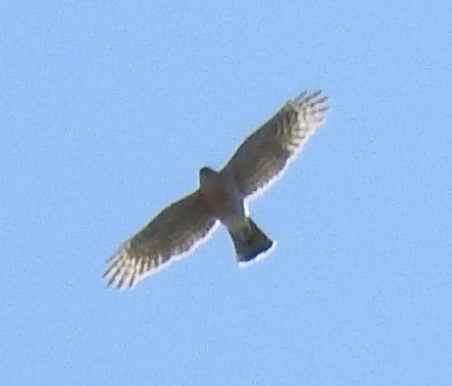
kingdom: Animalia
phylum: Chordata
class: Aves
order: Accipitriformes
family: Accipitridae
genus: Accipiter
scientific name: Accipiter cooperii
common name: Cooper's hawk
